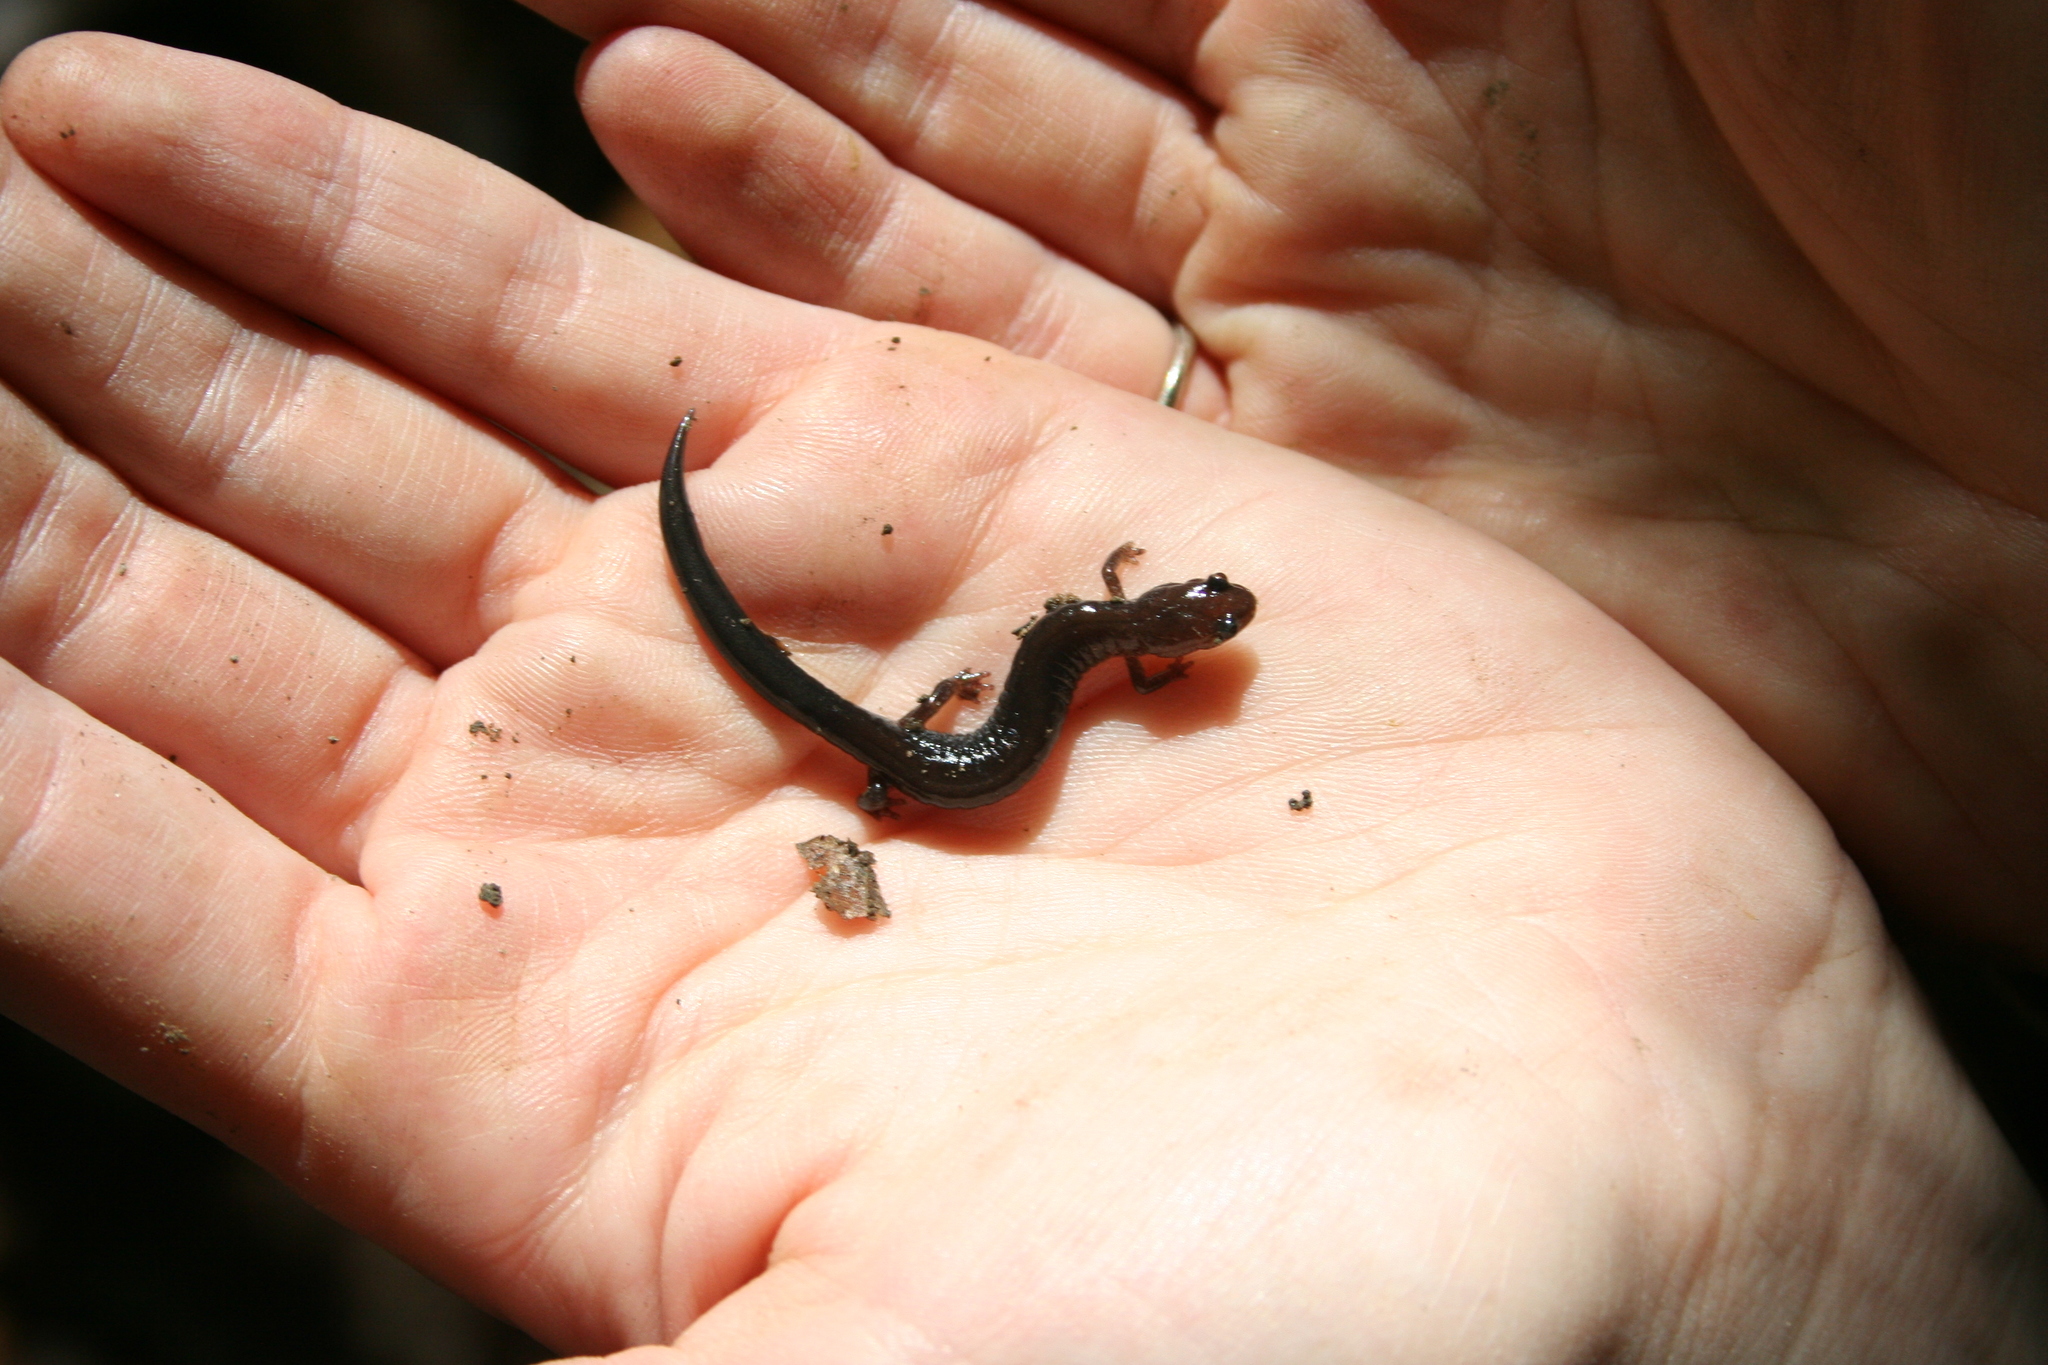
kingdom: Animalia
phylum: Chordata
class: Amphibia
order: Caudata
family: Plethodontidae
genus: Plethodon
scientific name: Plethodon cinereus
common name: Redback salamander
